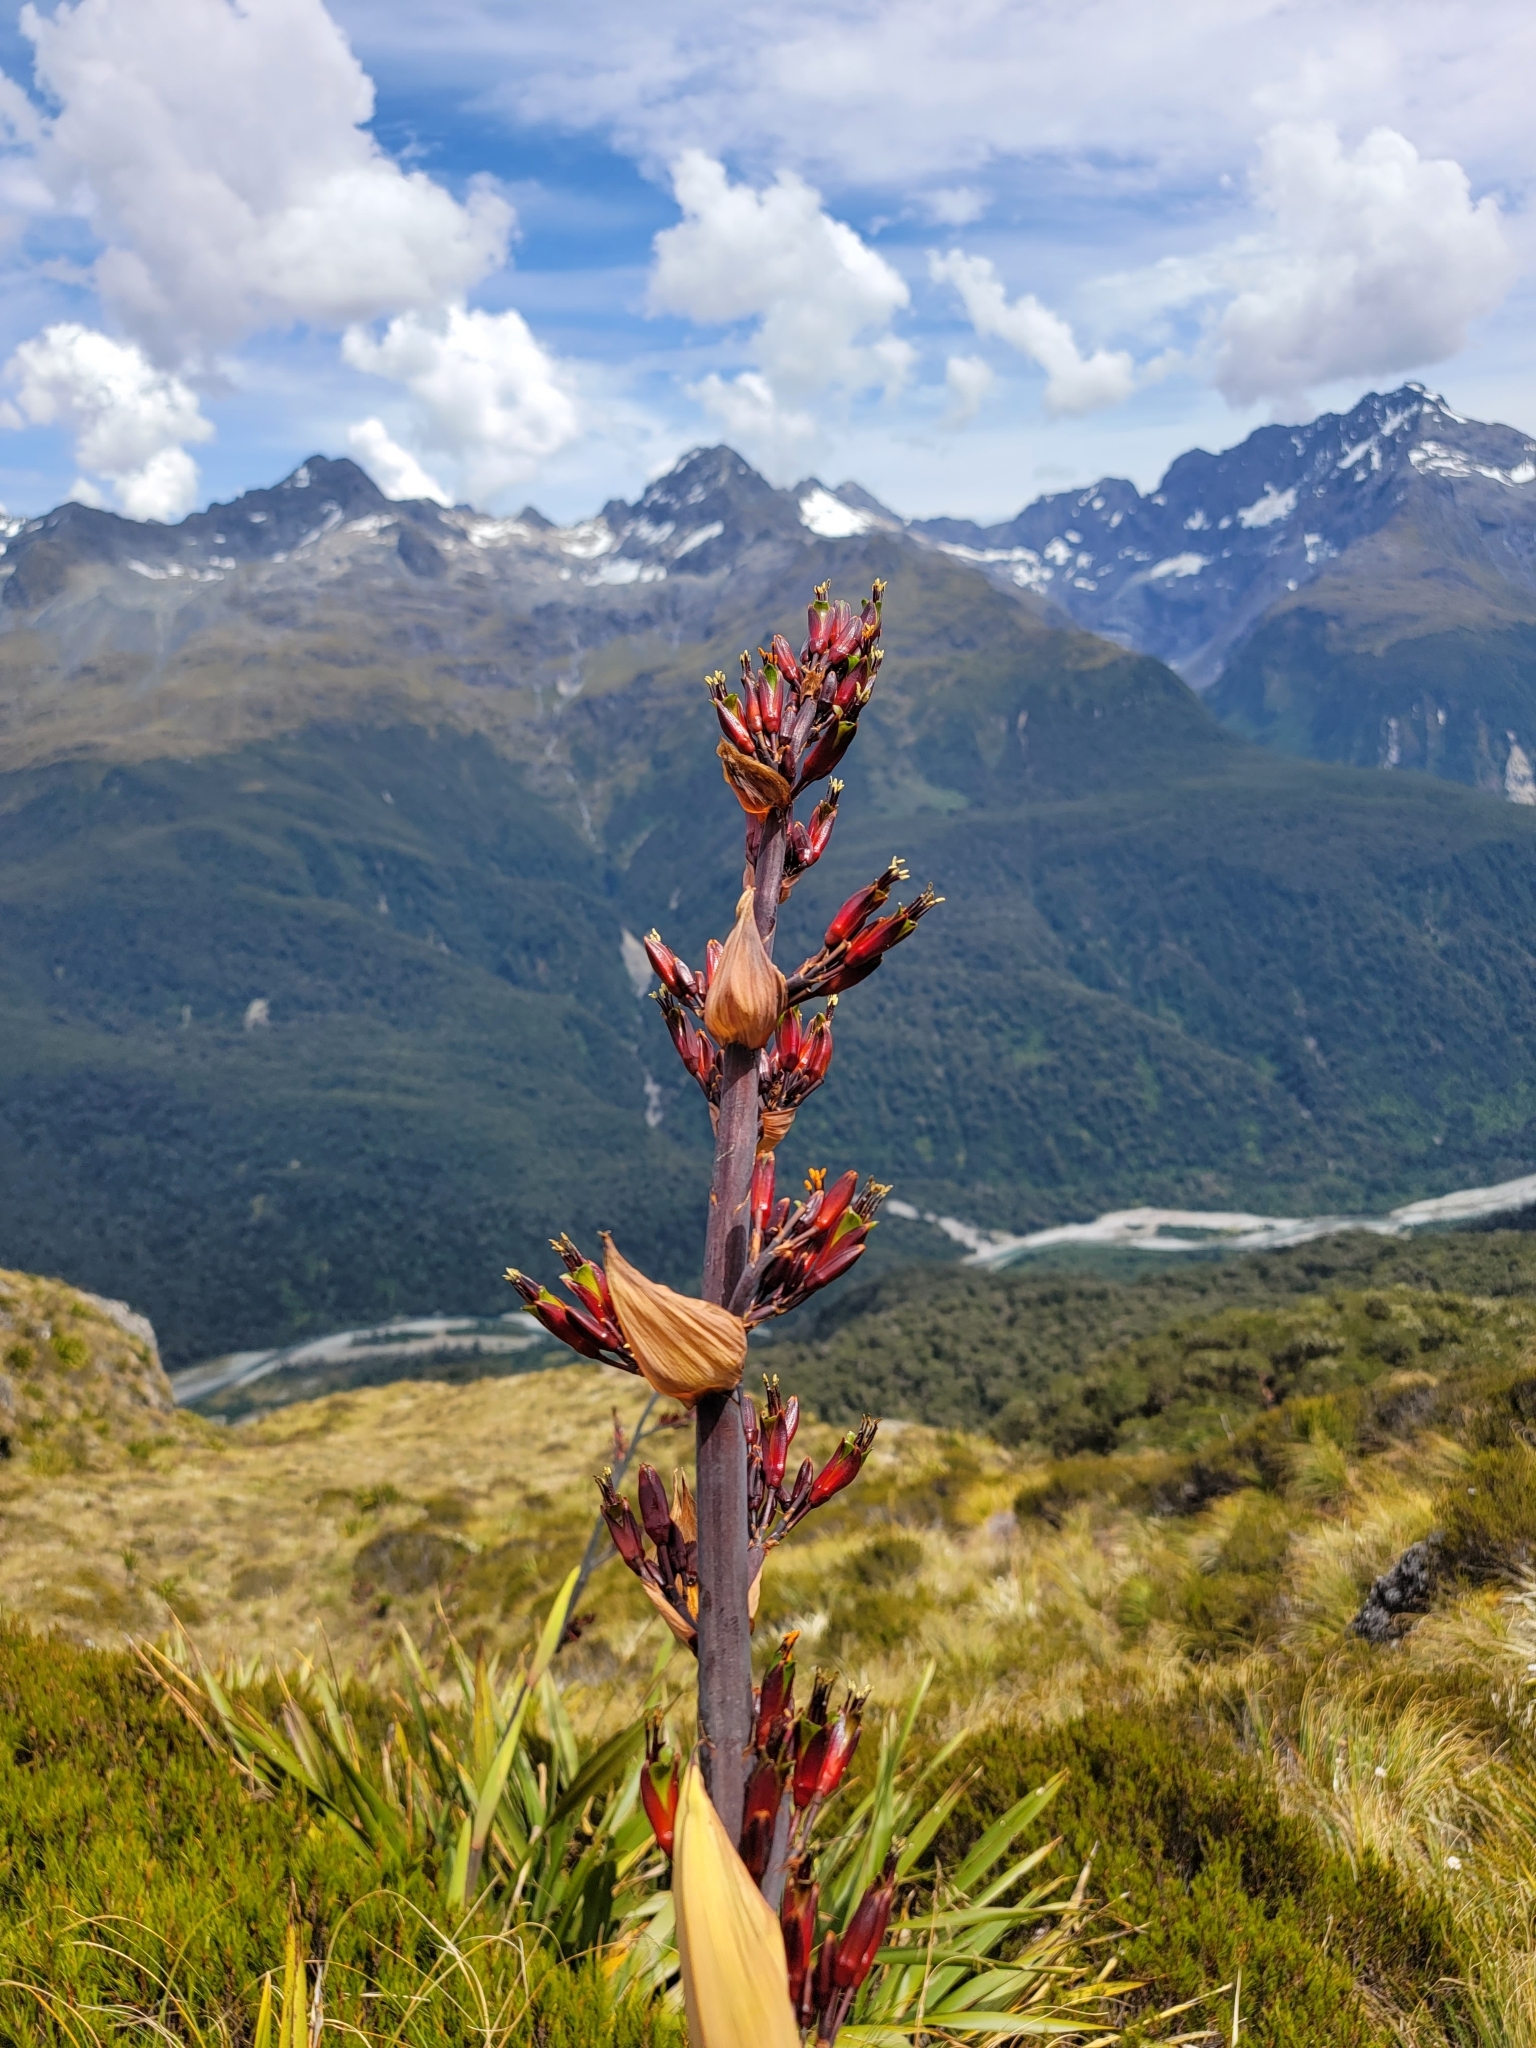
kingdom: Plantae
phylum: Tracheophyta
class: Liliopsida
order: Asparagales
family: Asphodelaceae
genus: Phormium
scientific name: Phormium tenax
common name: New zealand flax
